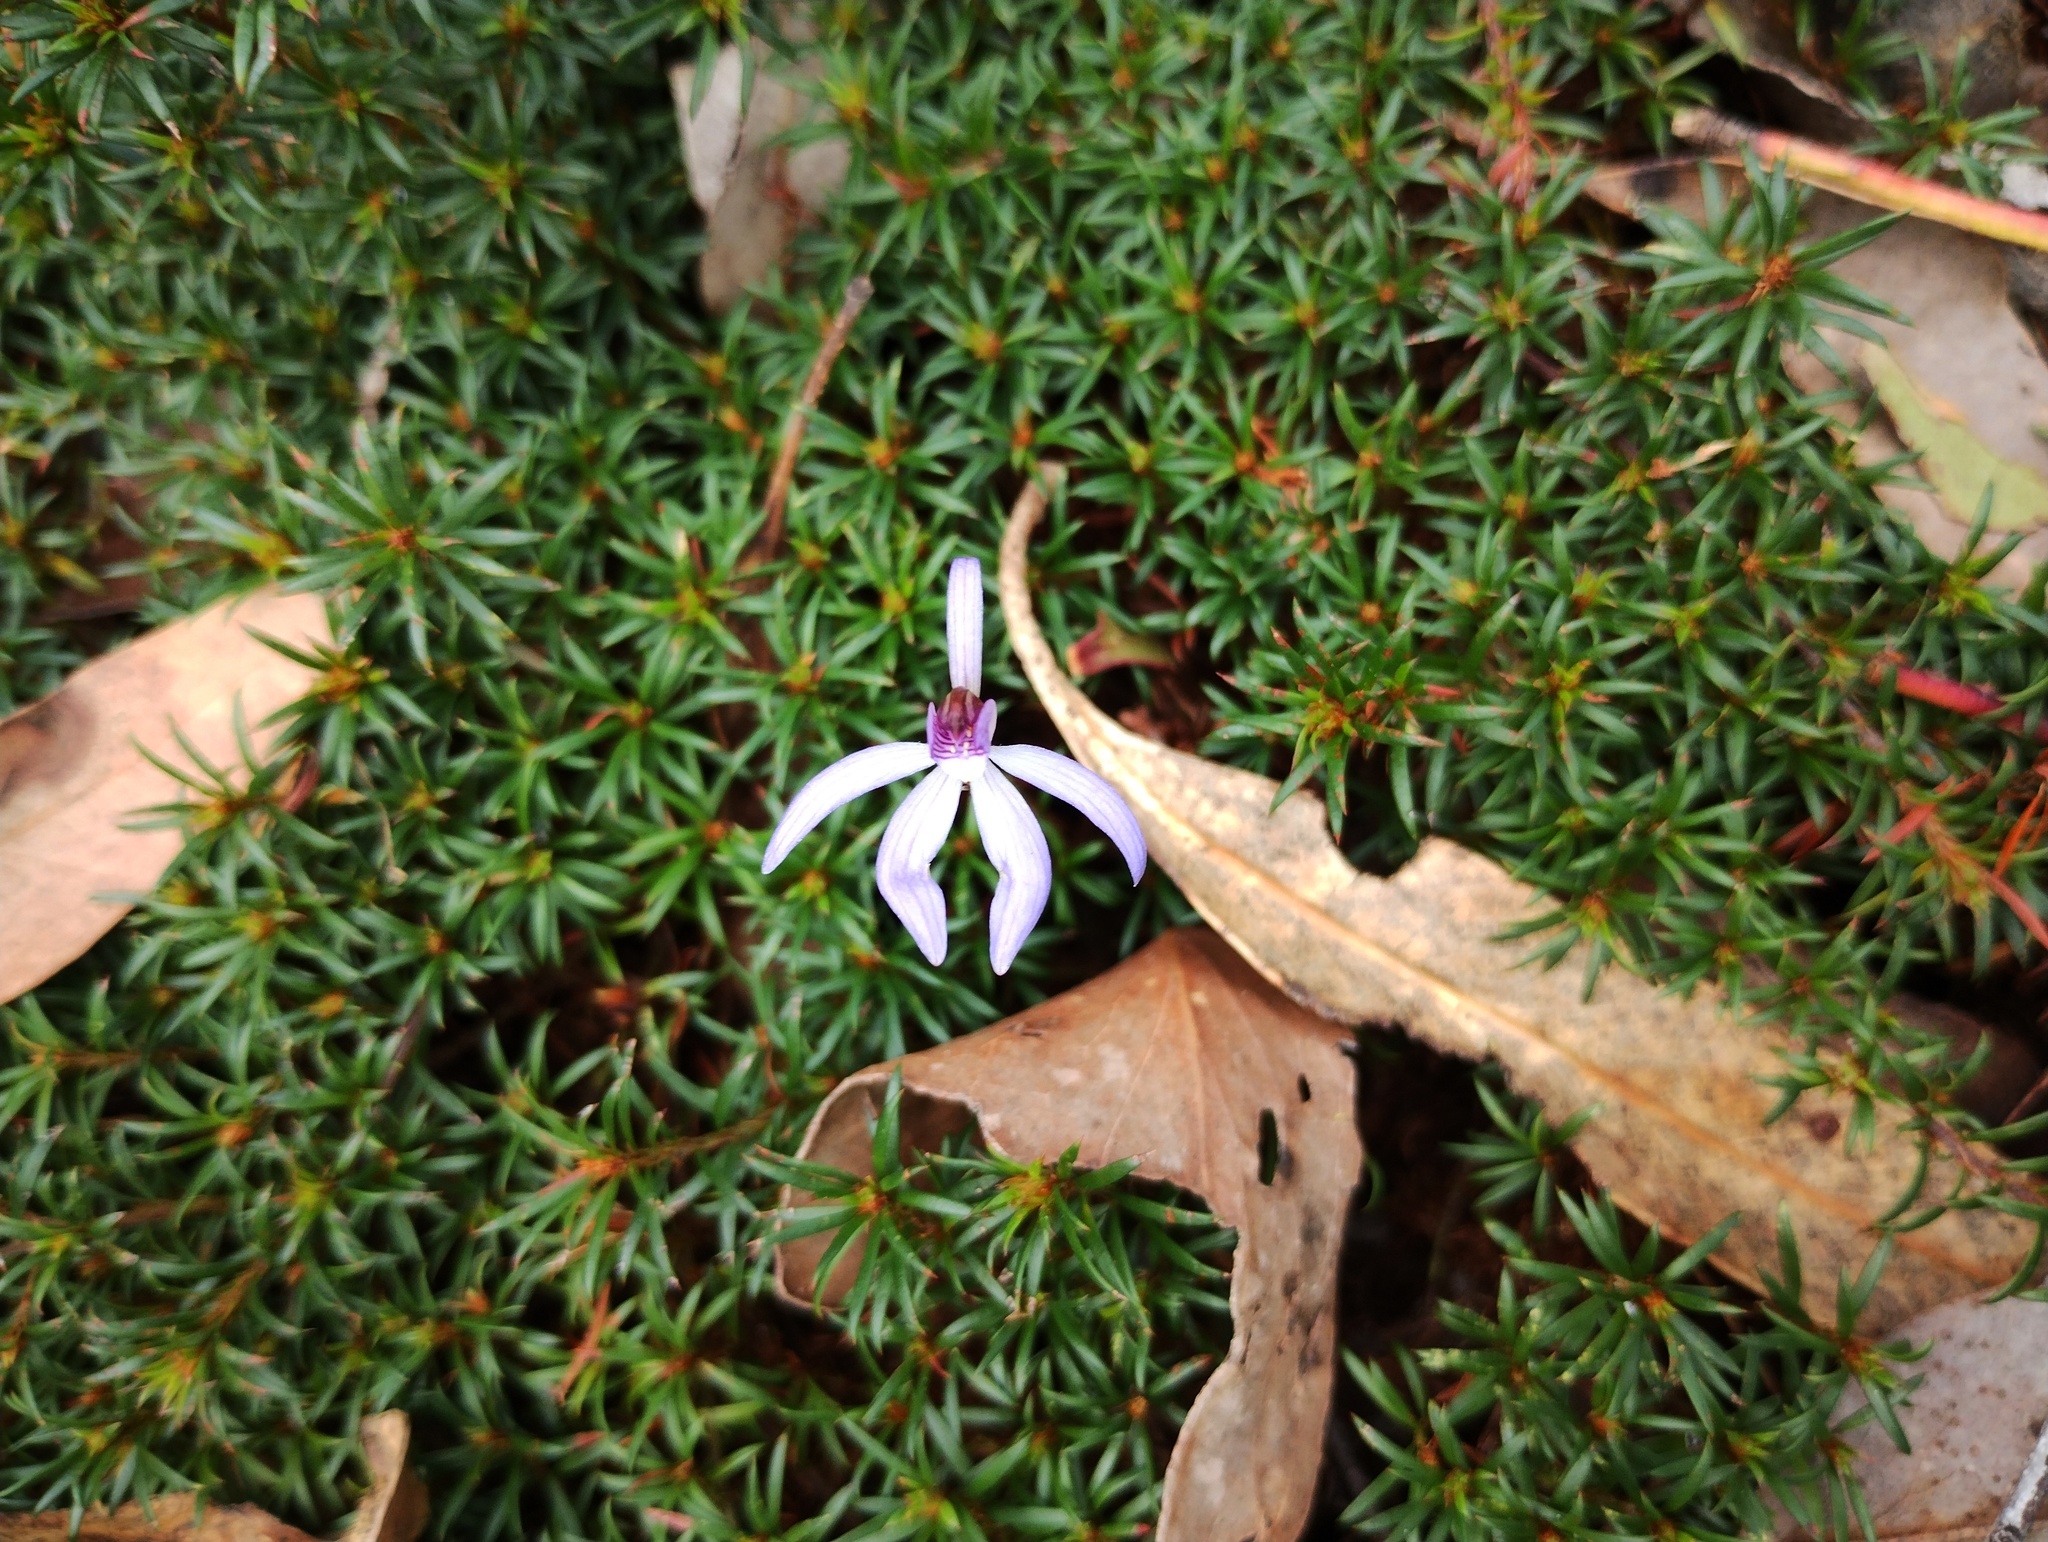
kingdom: Plantae
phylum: Tracheophyta
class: Liliopsida
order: Asparagales
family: Orchidaceae
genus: Caladenia
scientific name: Caladenia caerulea
